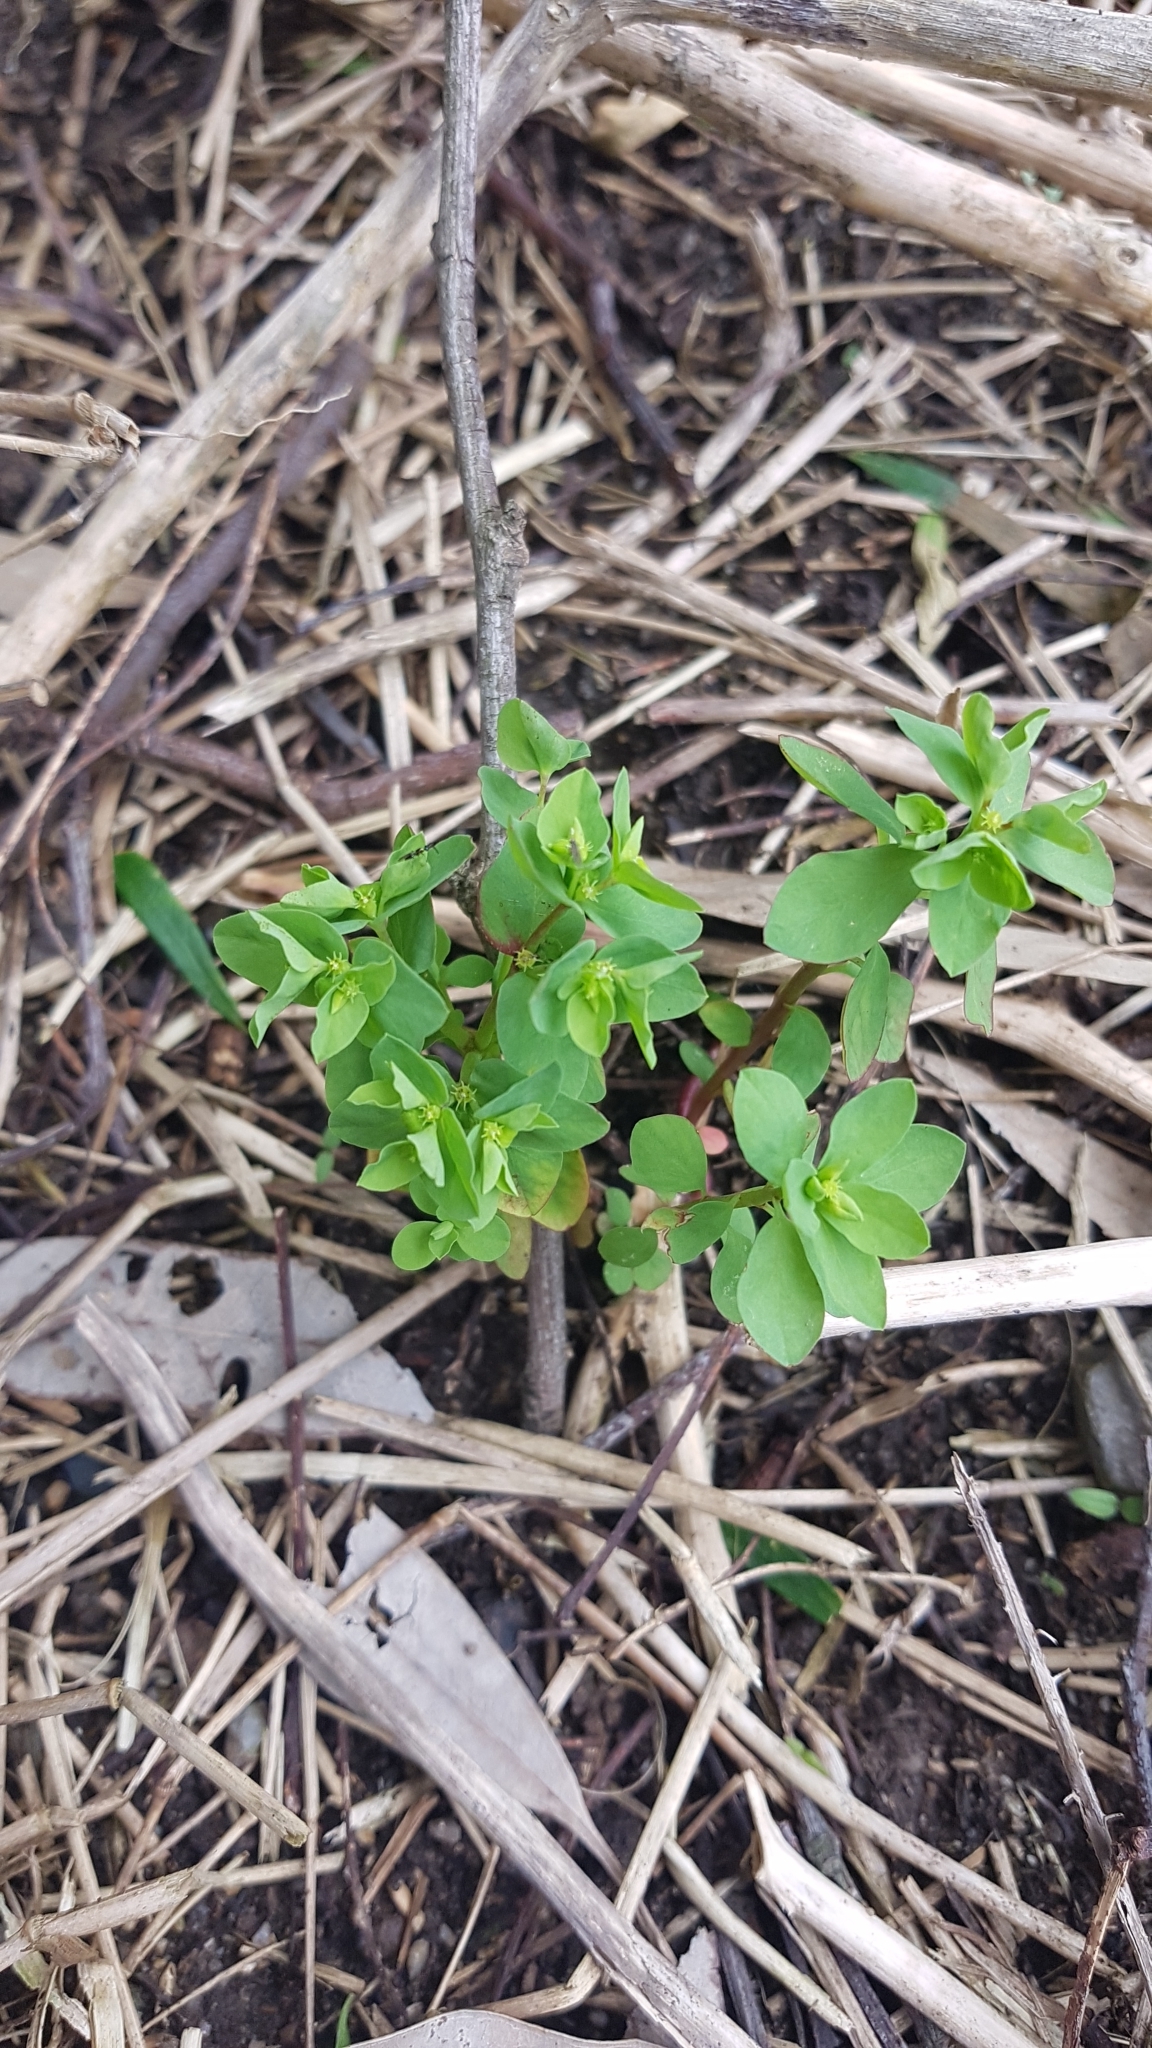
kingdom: Plantae
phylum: Tracheophyta
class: Magnoliopsida
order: Malpighiales
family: Euphorbiaceae
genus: Euphorbia
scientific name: Euphorbia peplus
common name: Petty spurge
